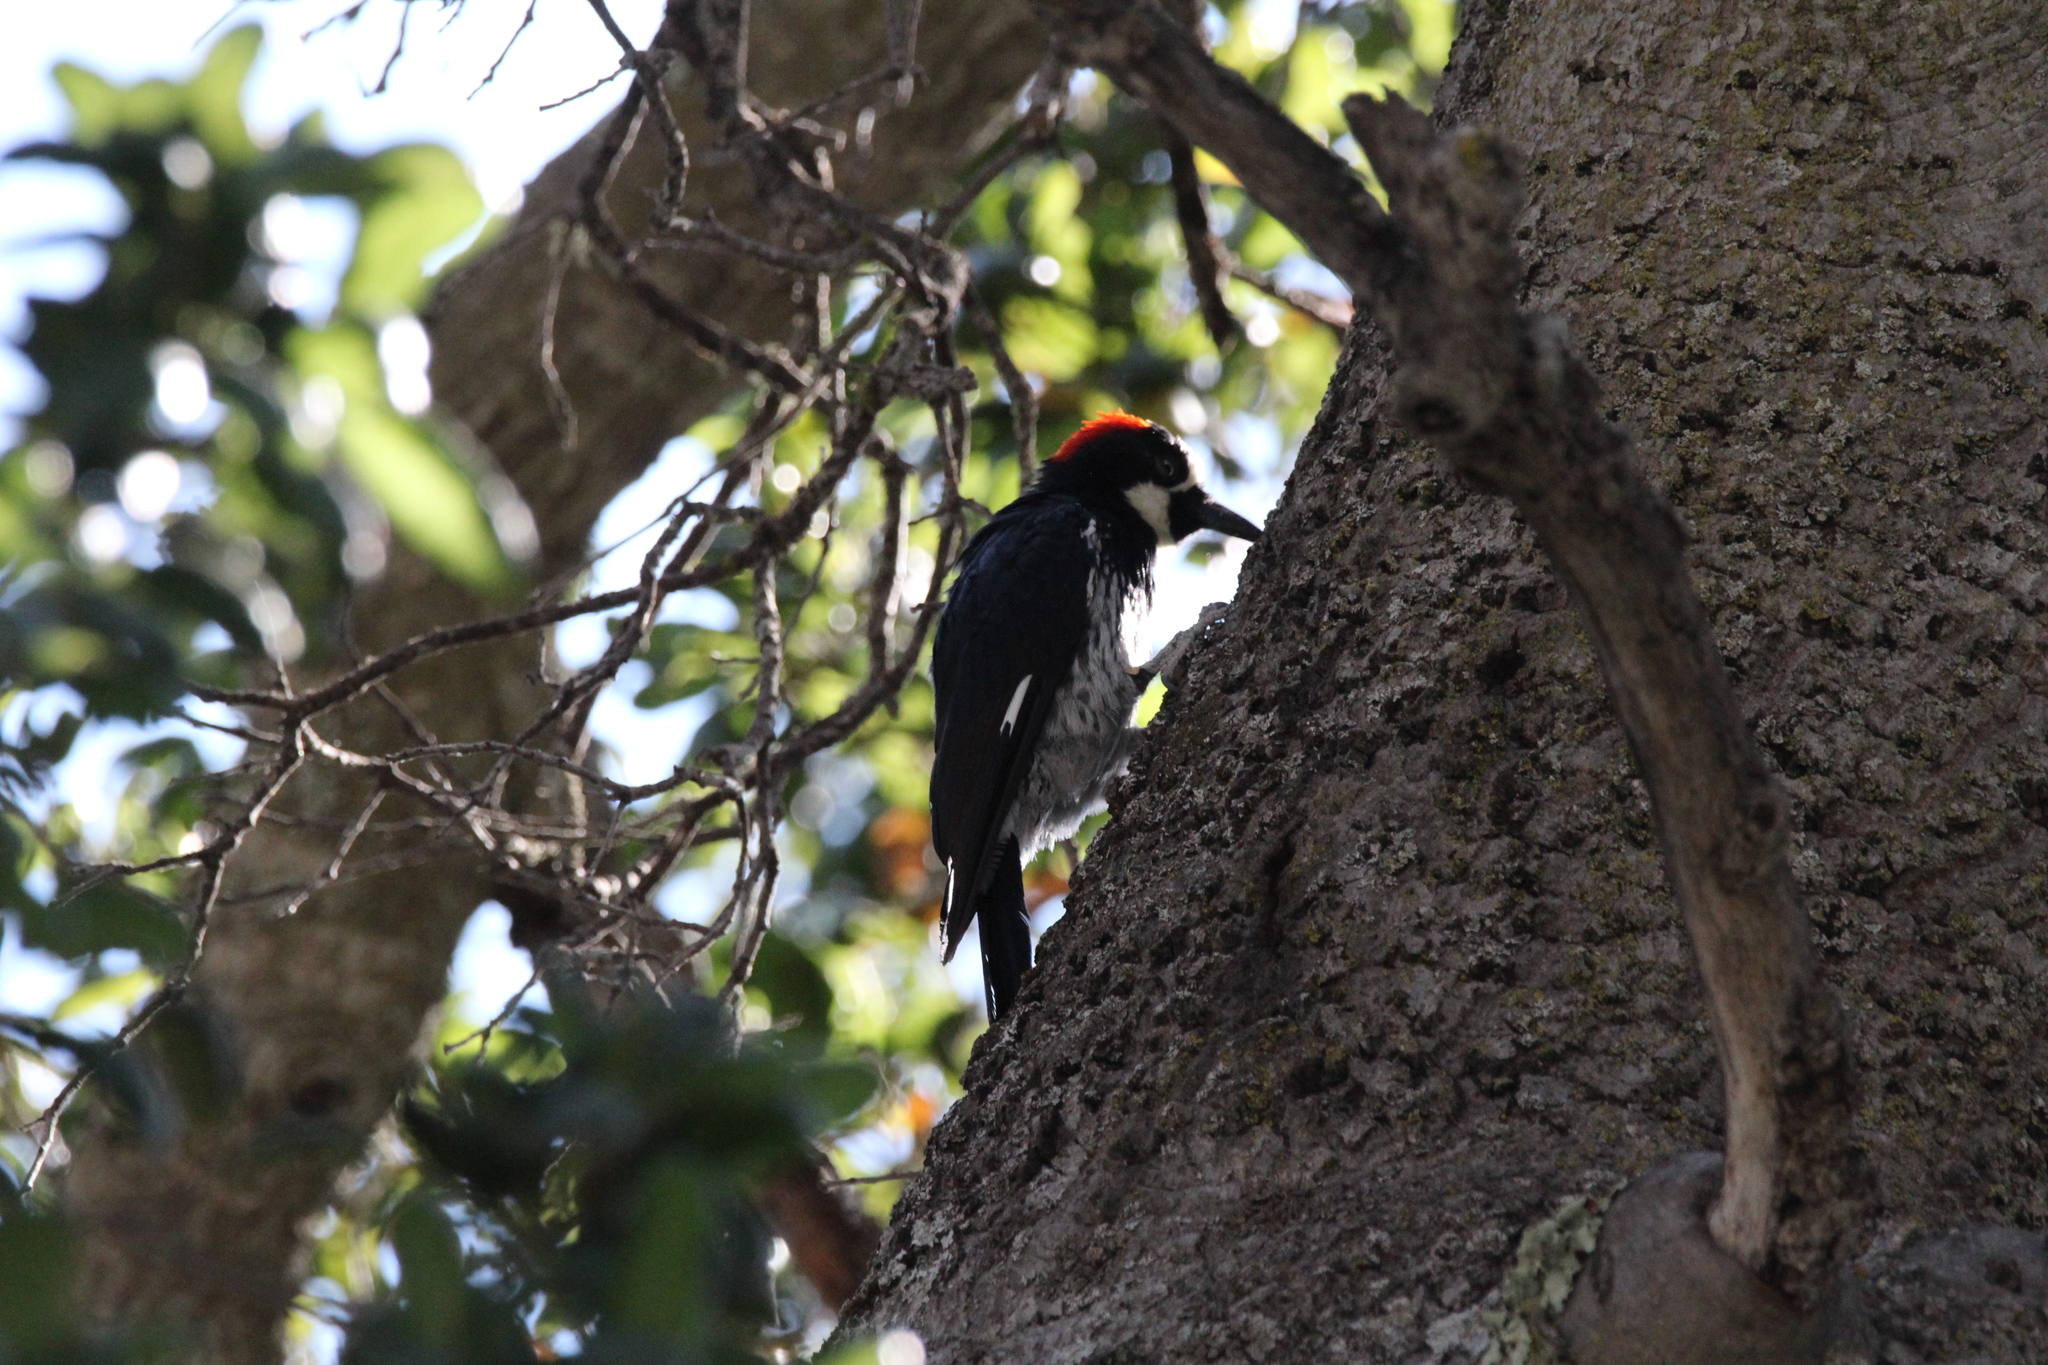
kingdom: Animalia
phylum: Chordata
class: Aves
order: Piciformes
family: Picidae
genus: Melanerpes
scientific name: Melanerpes formicivorus
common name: Acorn woodpecker
